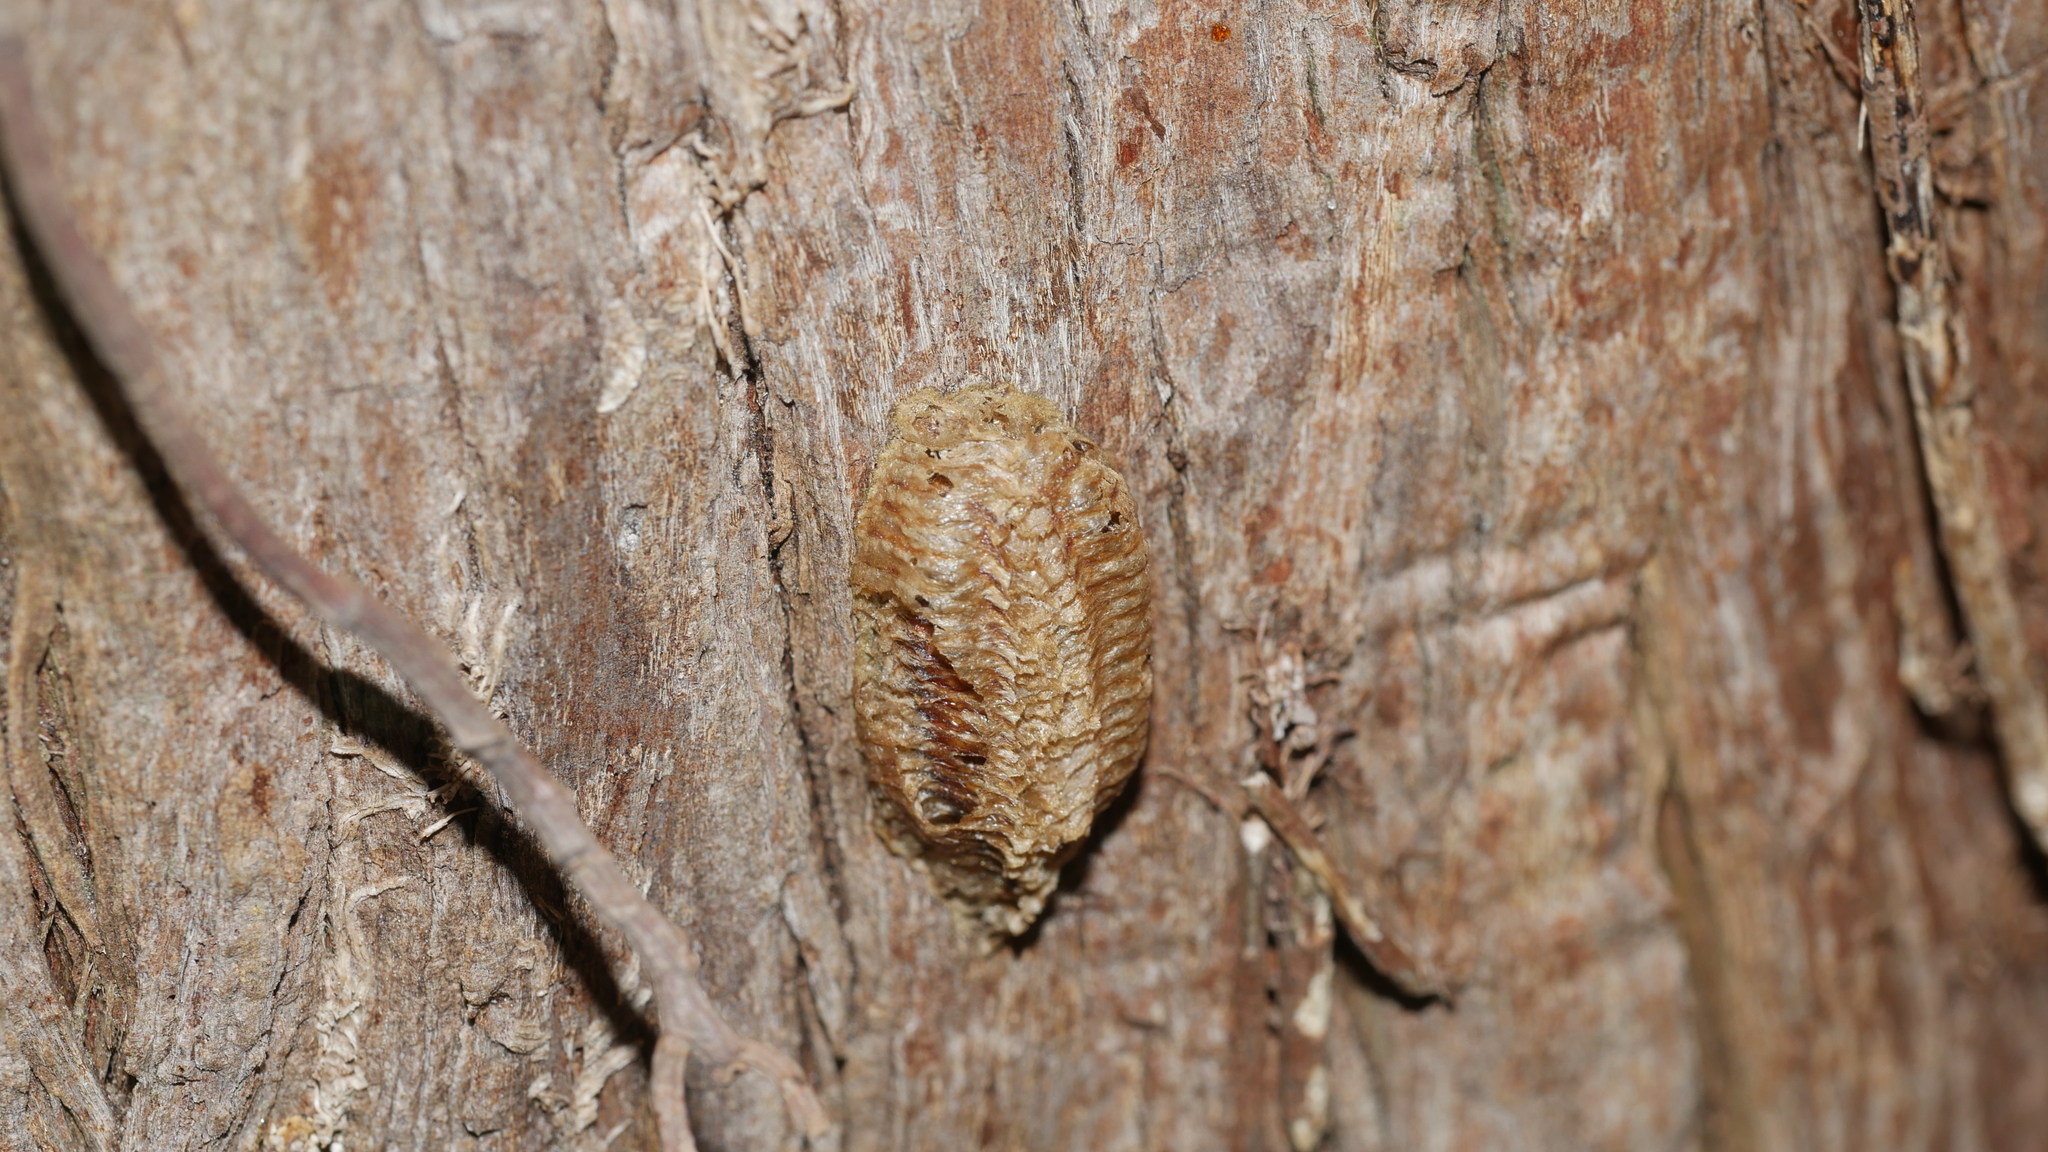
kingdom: Animalia
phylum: Arthropoda
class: Insecta
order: Mantodea
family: Mantidae
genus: Stagmomantis
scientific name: Stagmomantis carolina
